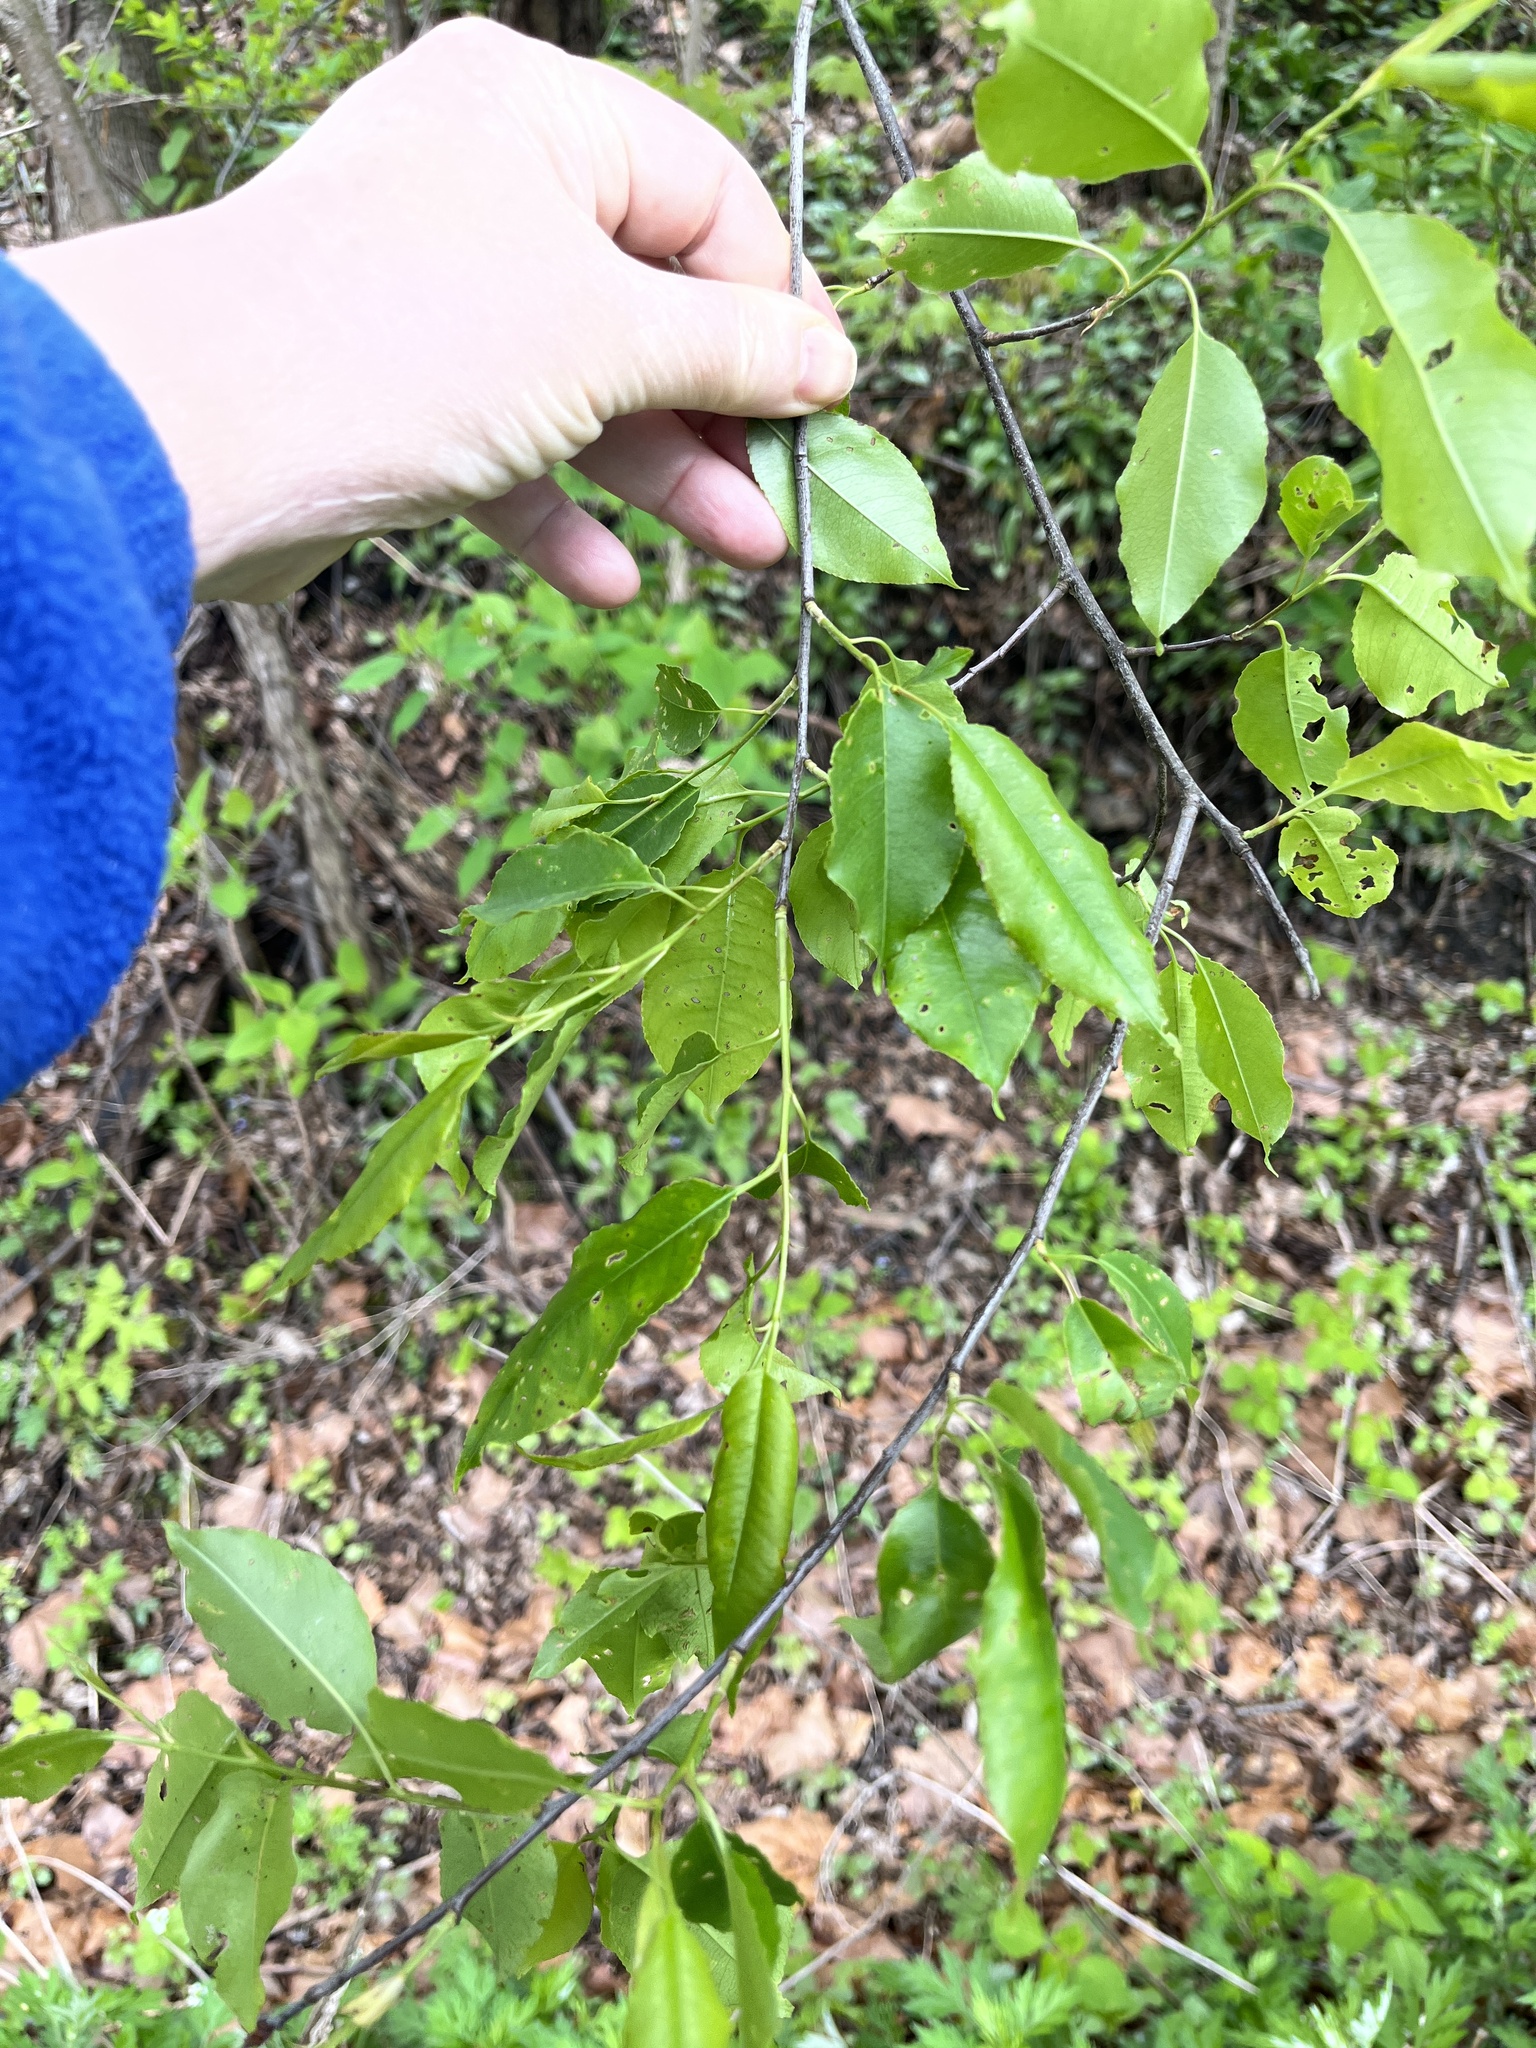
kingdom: Plantae
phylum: Tracheophyta
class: Magnoliopsida
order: Rosales
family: Rosaceae
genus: Prunus
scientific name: Prunus serotina
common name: Black cherry
